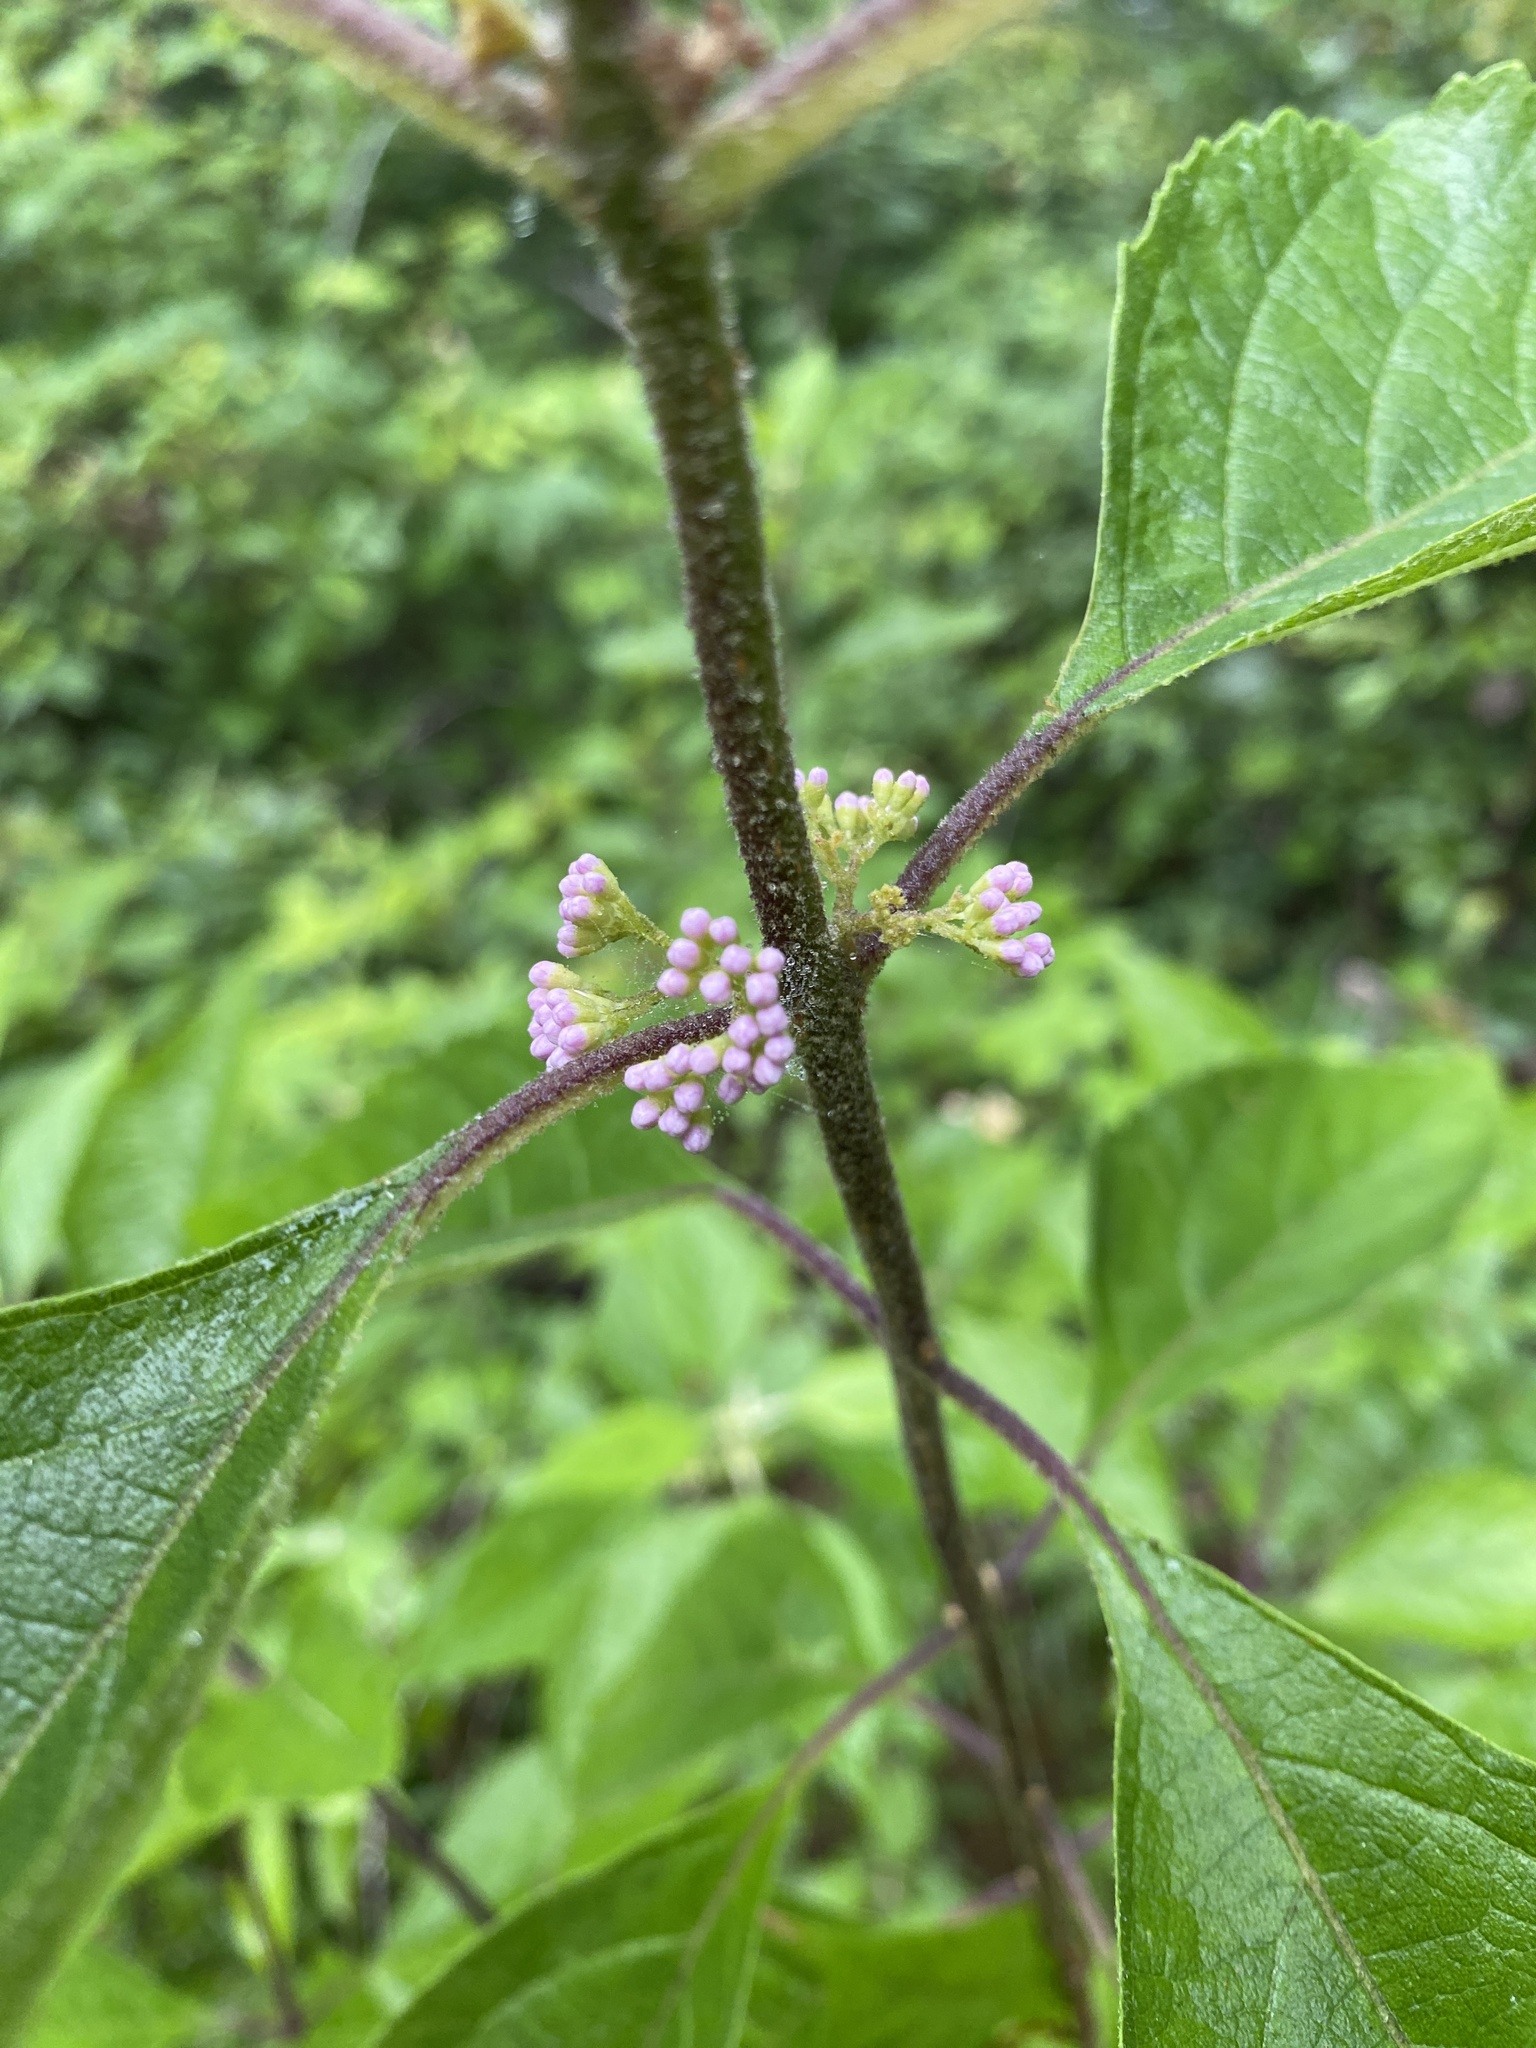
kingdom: Plantae
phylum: Tracheophyta
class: Magnoliopsida
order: Lamiales
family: Lamiaceae
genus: Callicarpa
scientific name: Callicarpa americana
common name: American beautyberry
